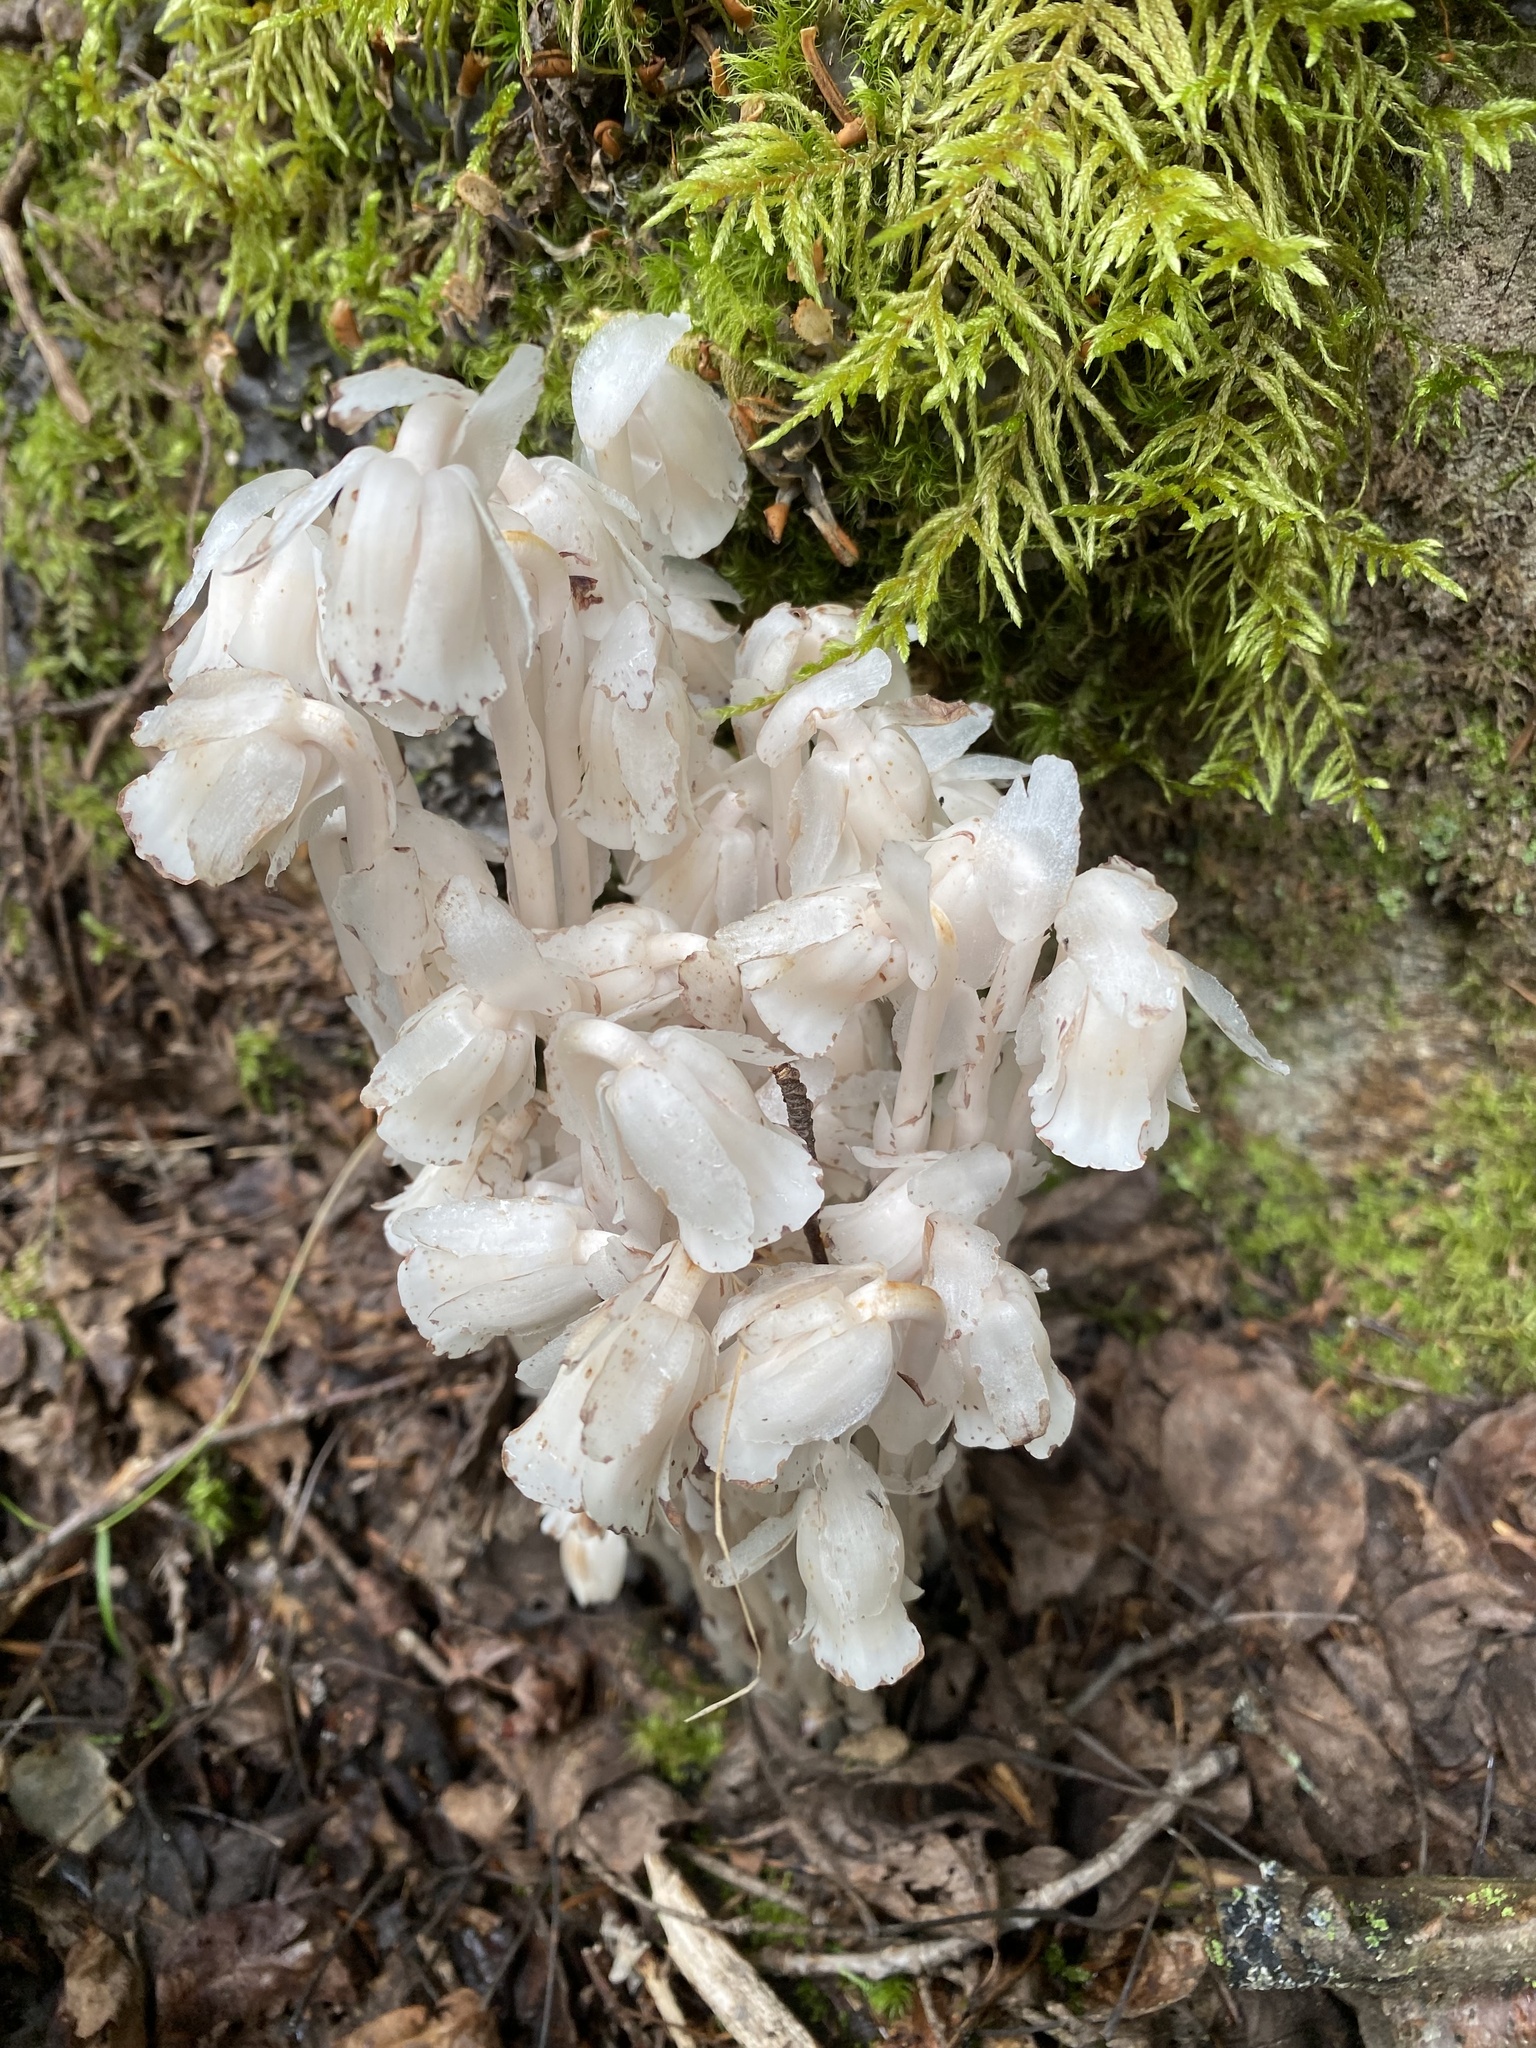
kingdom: Plantae
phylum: Tracheophyta
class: Magnoliopsida
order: Ericales
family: Ericaceae
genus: Monotropa
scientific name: Monotropa uniflora
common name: Convulsion root
